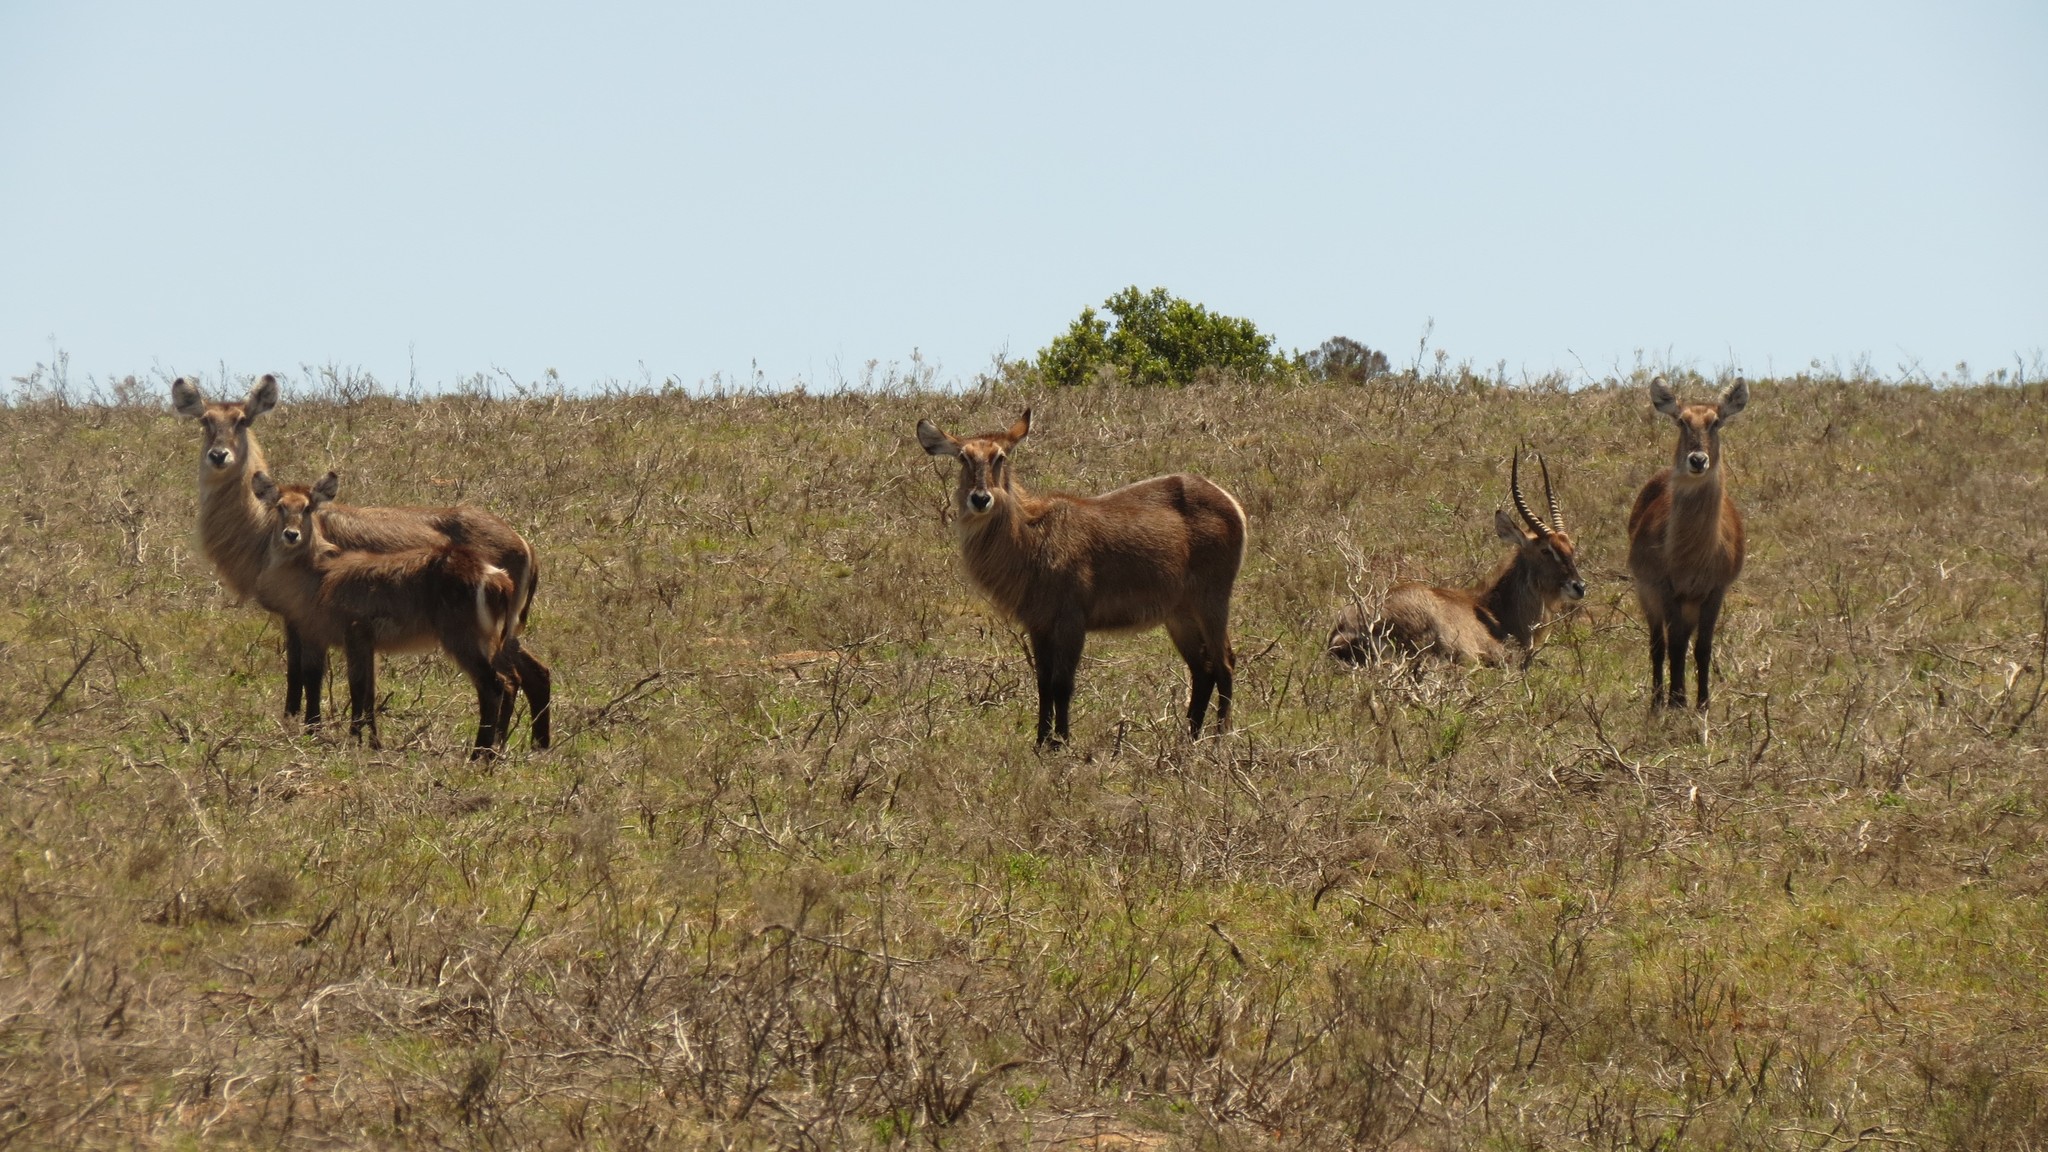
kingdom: Animalia
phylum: Chordata
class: Mammalia
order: Artiodactyla
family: Bovidae
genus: Kobus
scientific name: Kobus ellipsiprymnus
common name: Waterbuck
